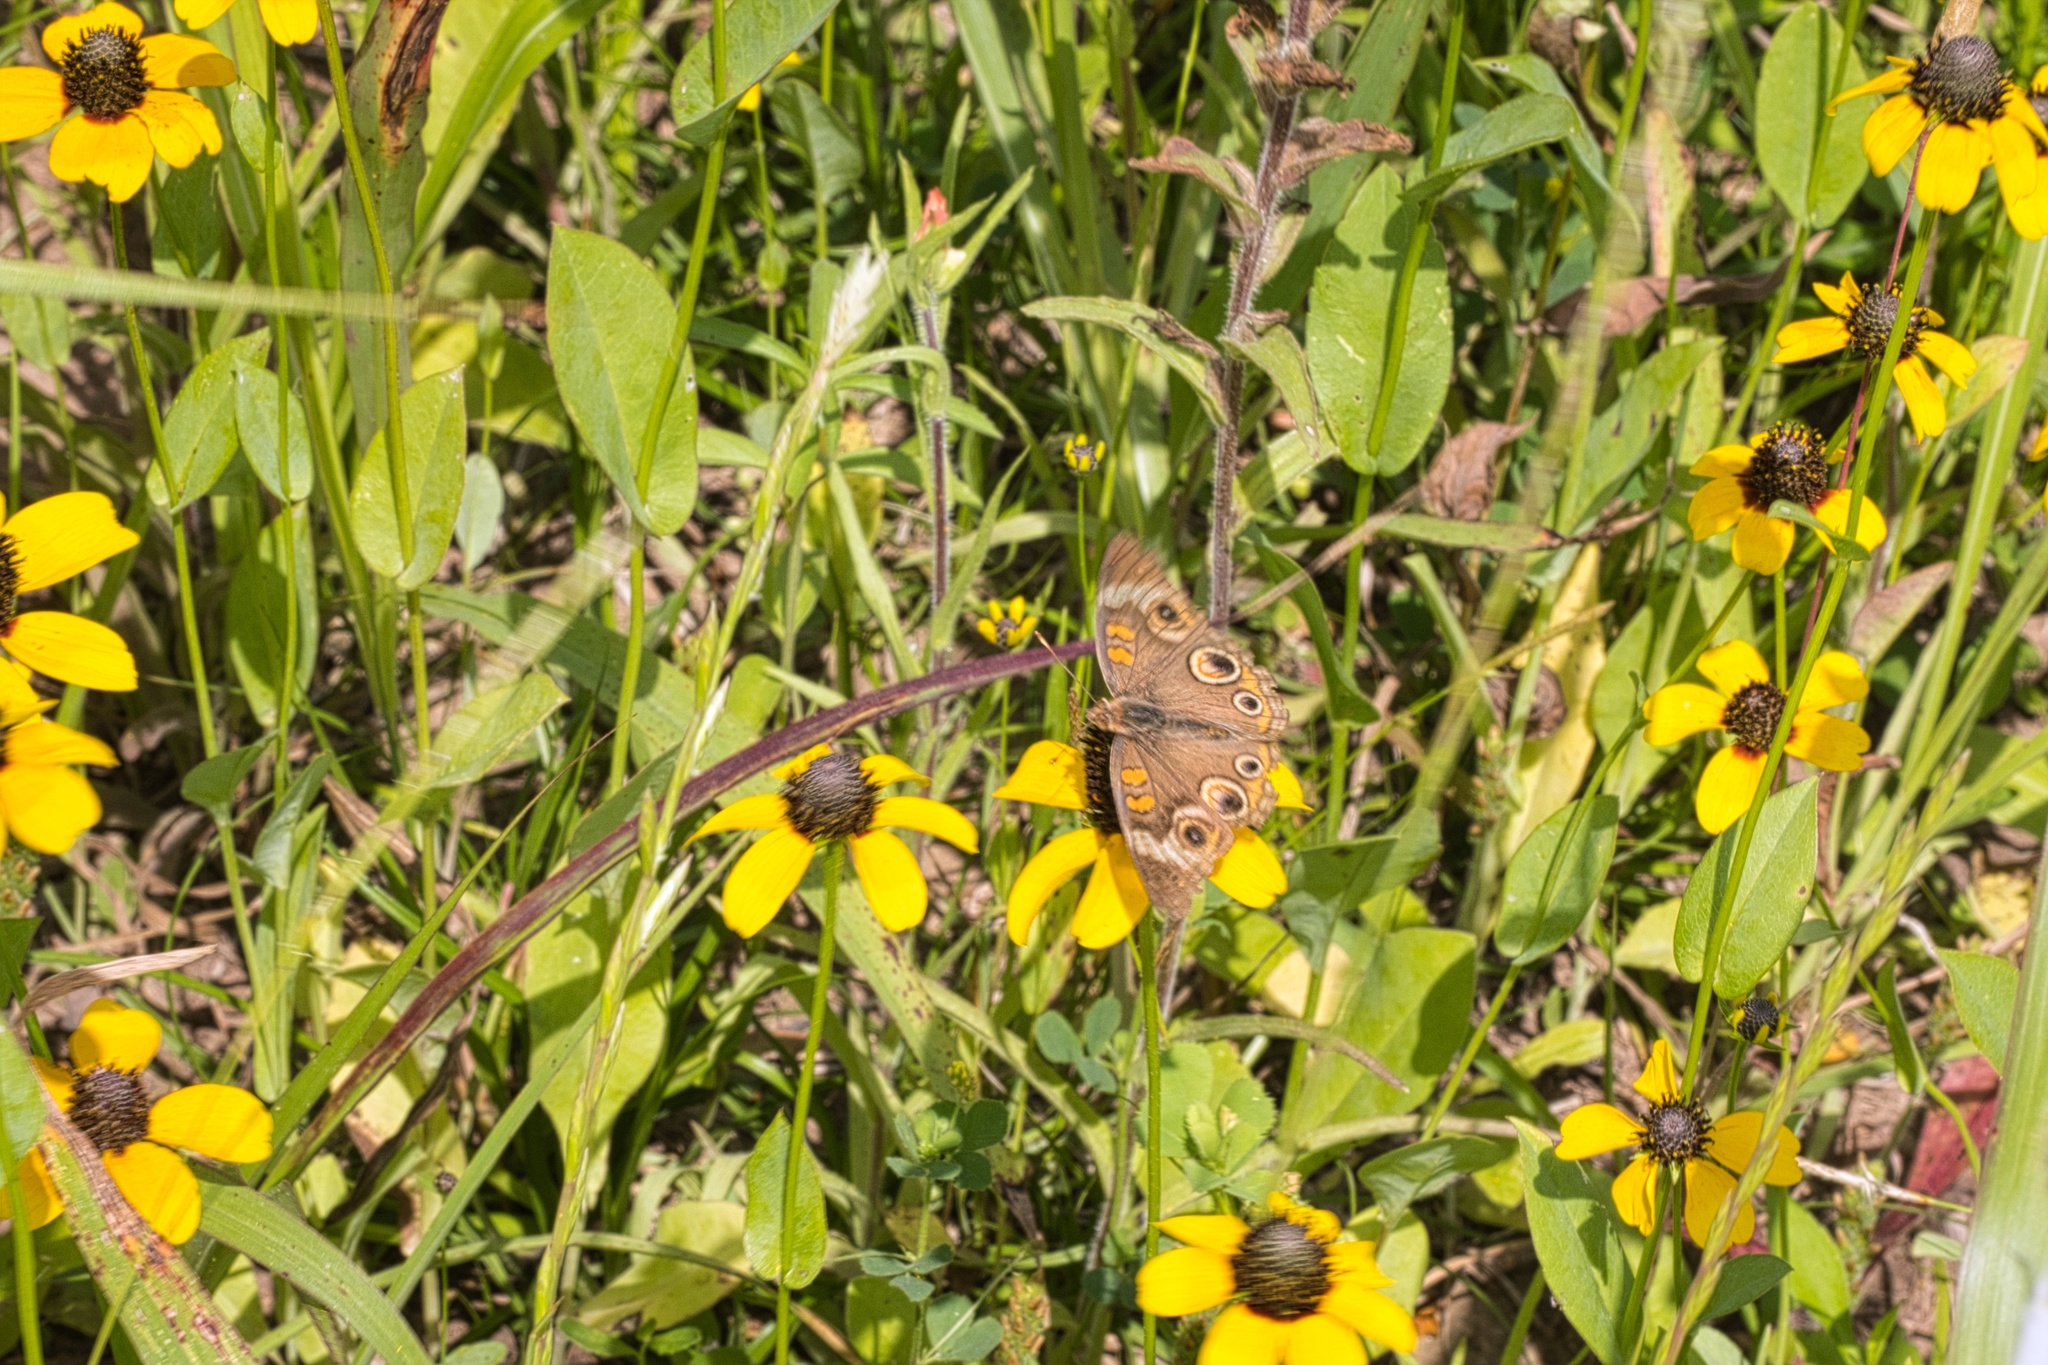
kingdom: Animalia
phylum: Arthropoda
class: Insecta
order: Lepidoptera
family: Nymphalidae
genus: Junonia
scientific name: Junonia coenia
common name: Common buckeye
